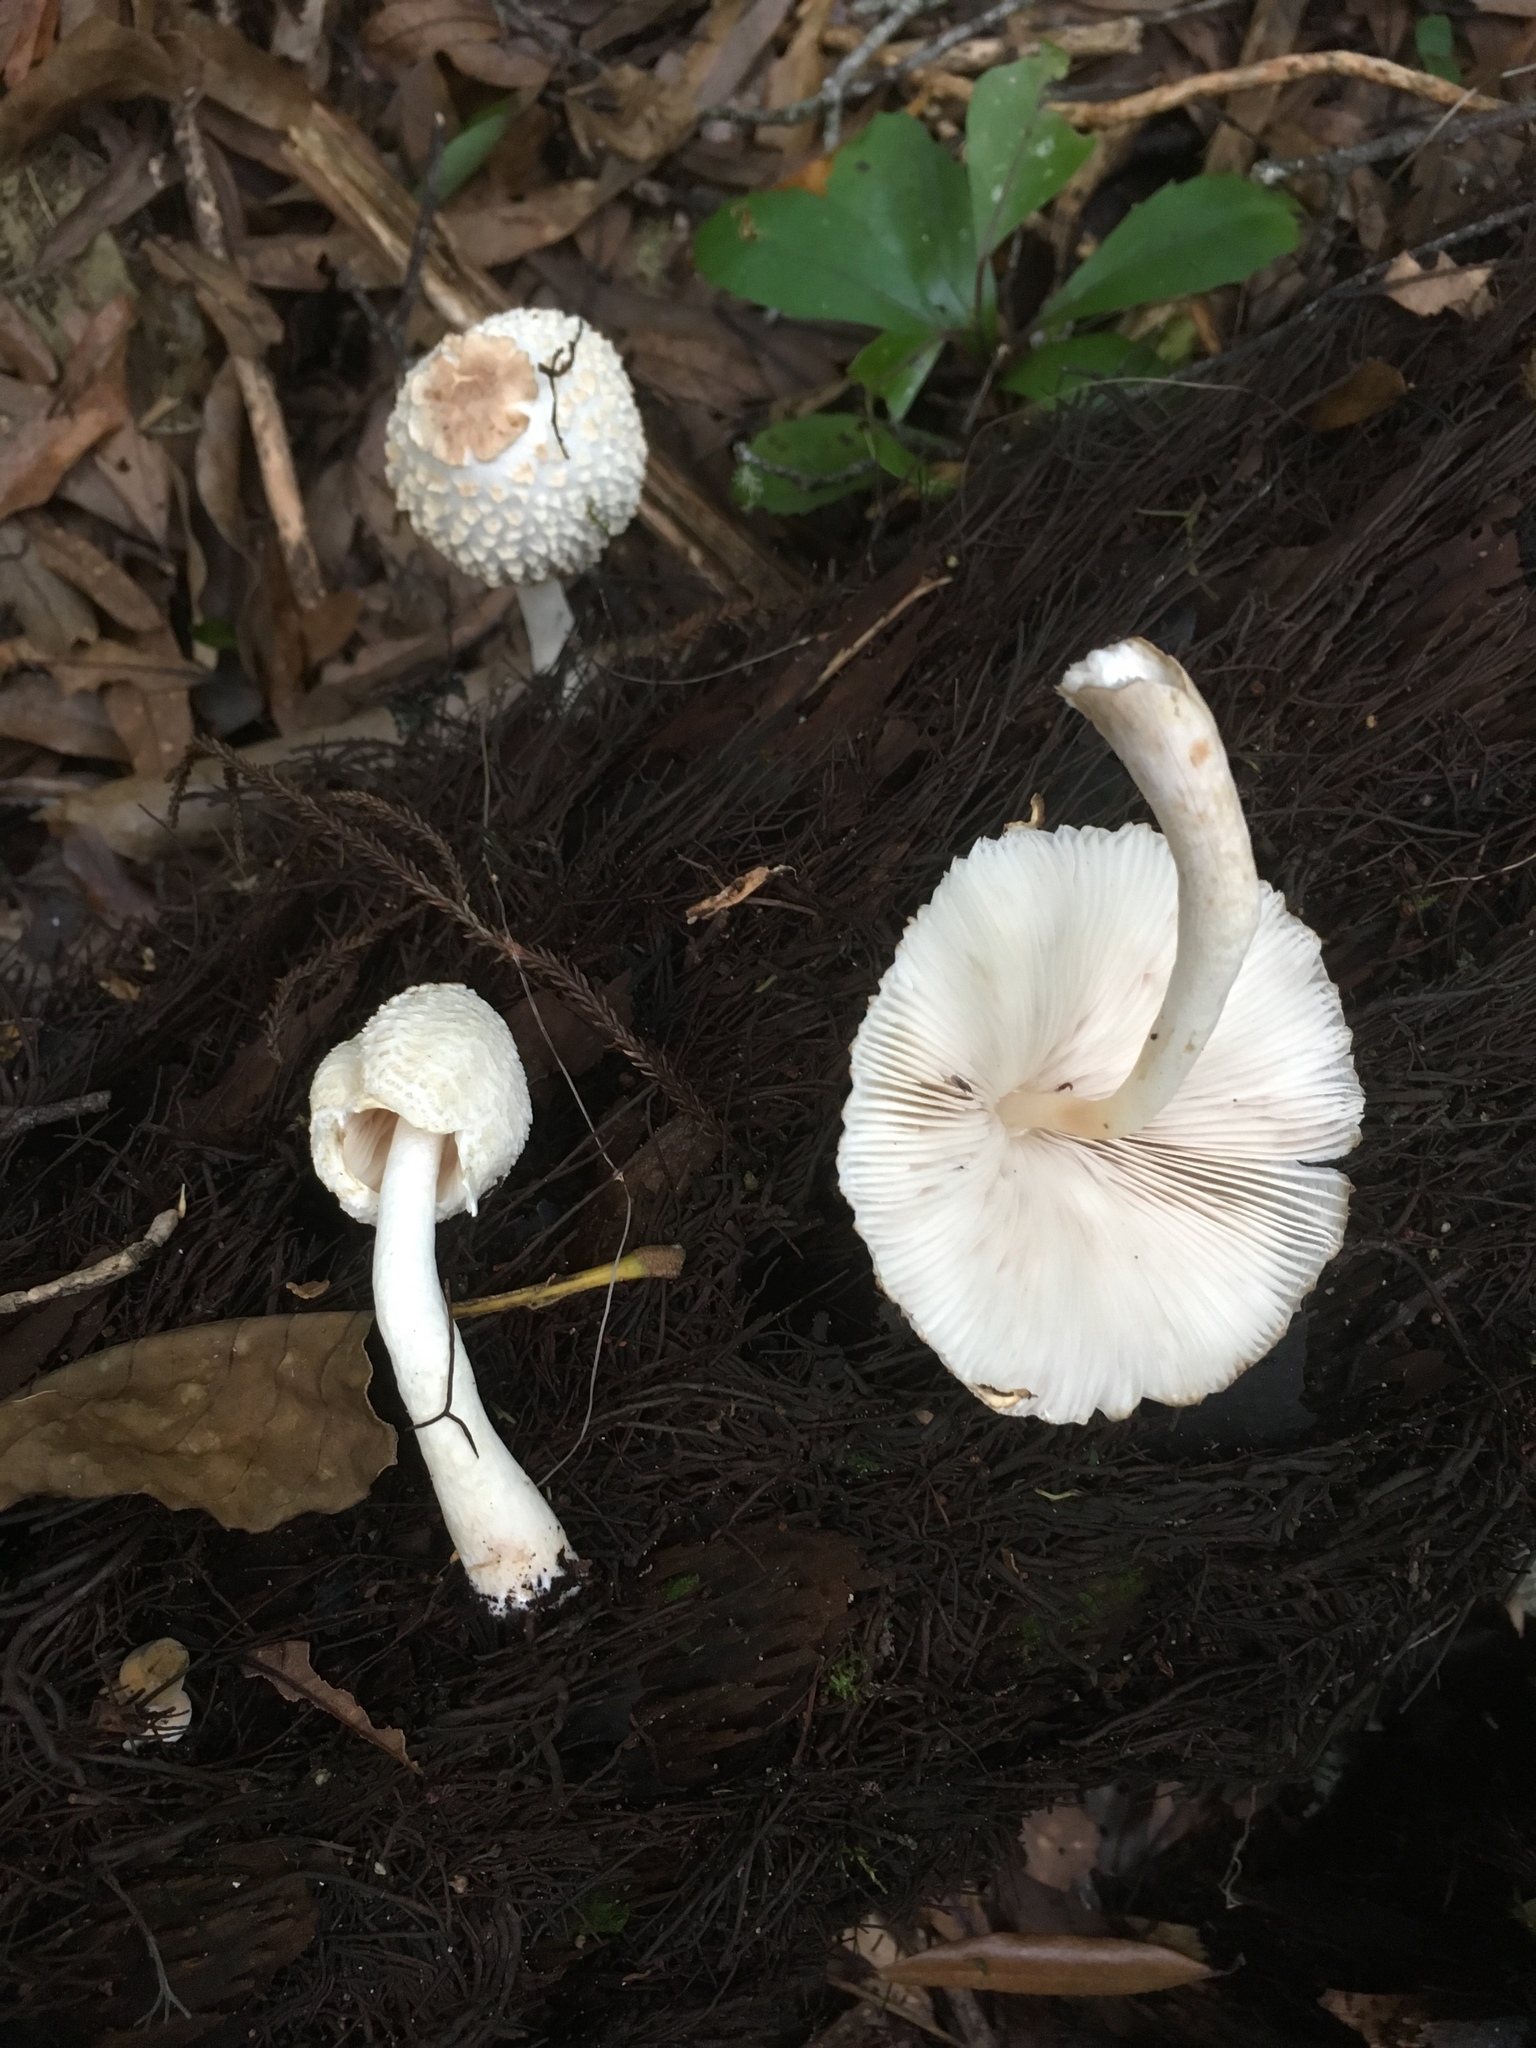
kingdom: Fungi
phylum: Basidiomycota
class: Agaricomycetes
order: Agaricales
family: Agaricaceae
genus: Leucocoprinus
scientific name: Leucocoprinus cepistipes
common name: Onion-stalk parasol
